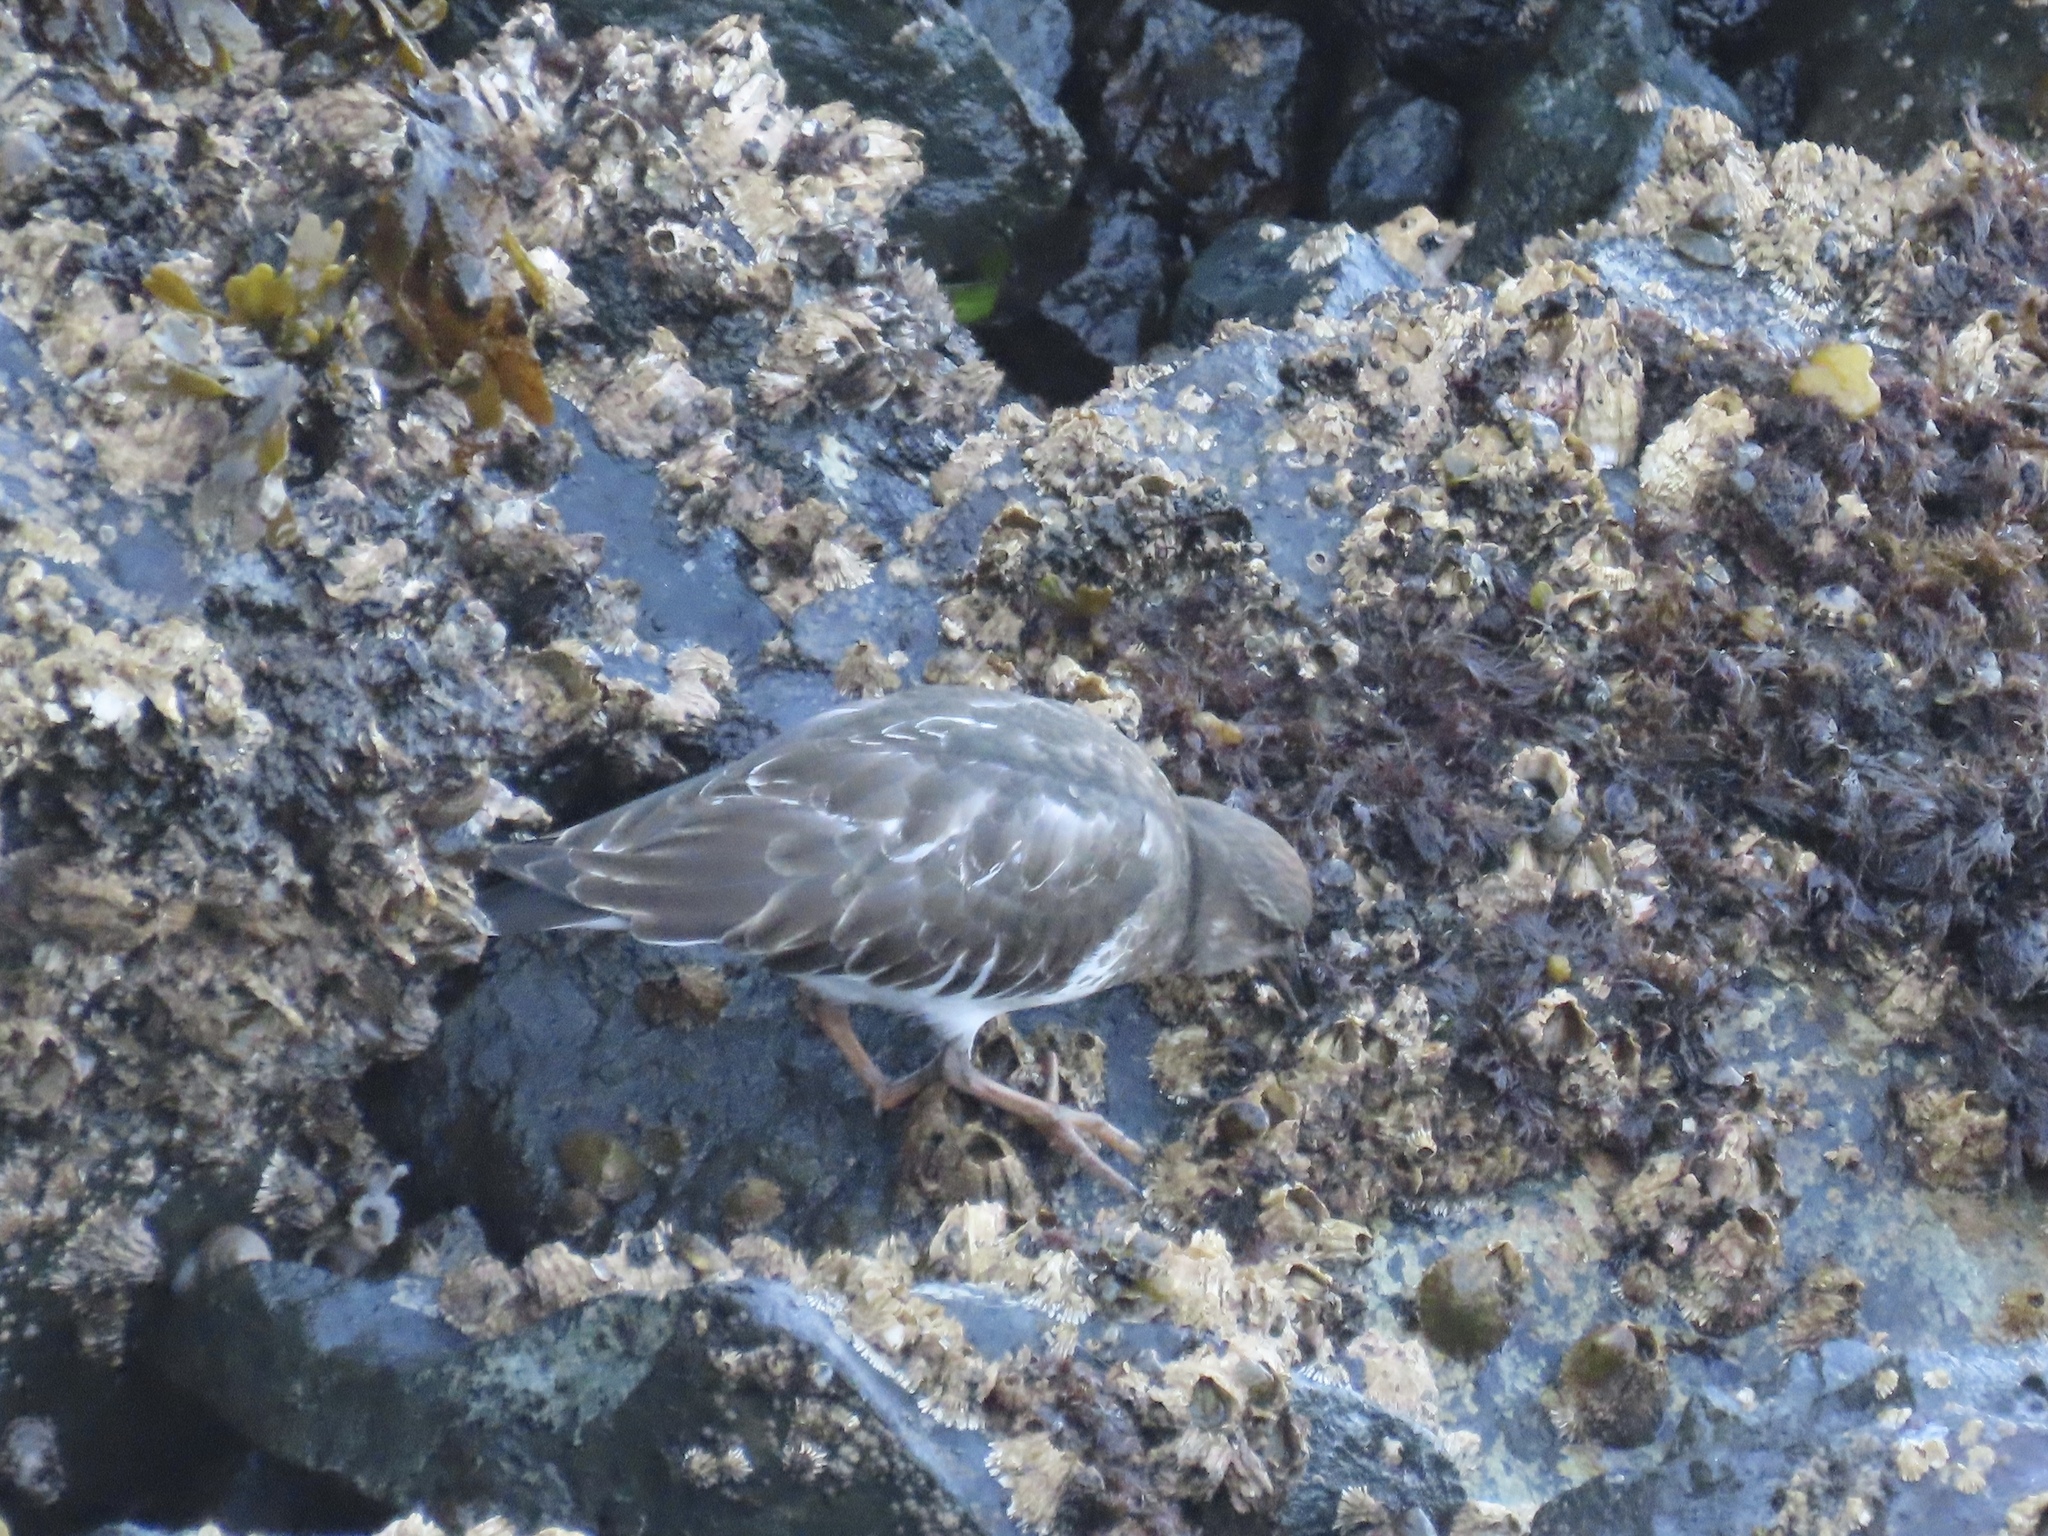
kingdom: Animalia
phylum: Chordata
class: Aves
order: Charadriiformes
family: Scolopacidae
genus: Arenaria
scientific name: Arenaria melanocephala
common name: Black turnstone
